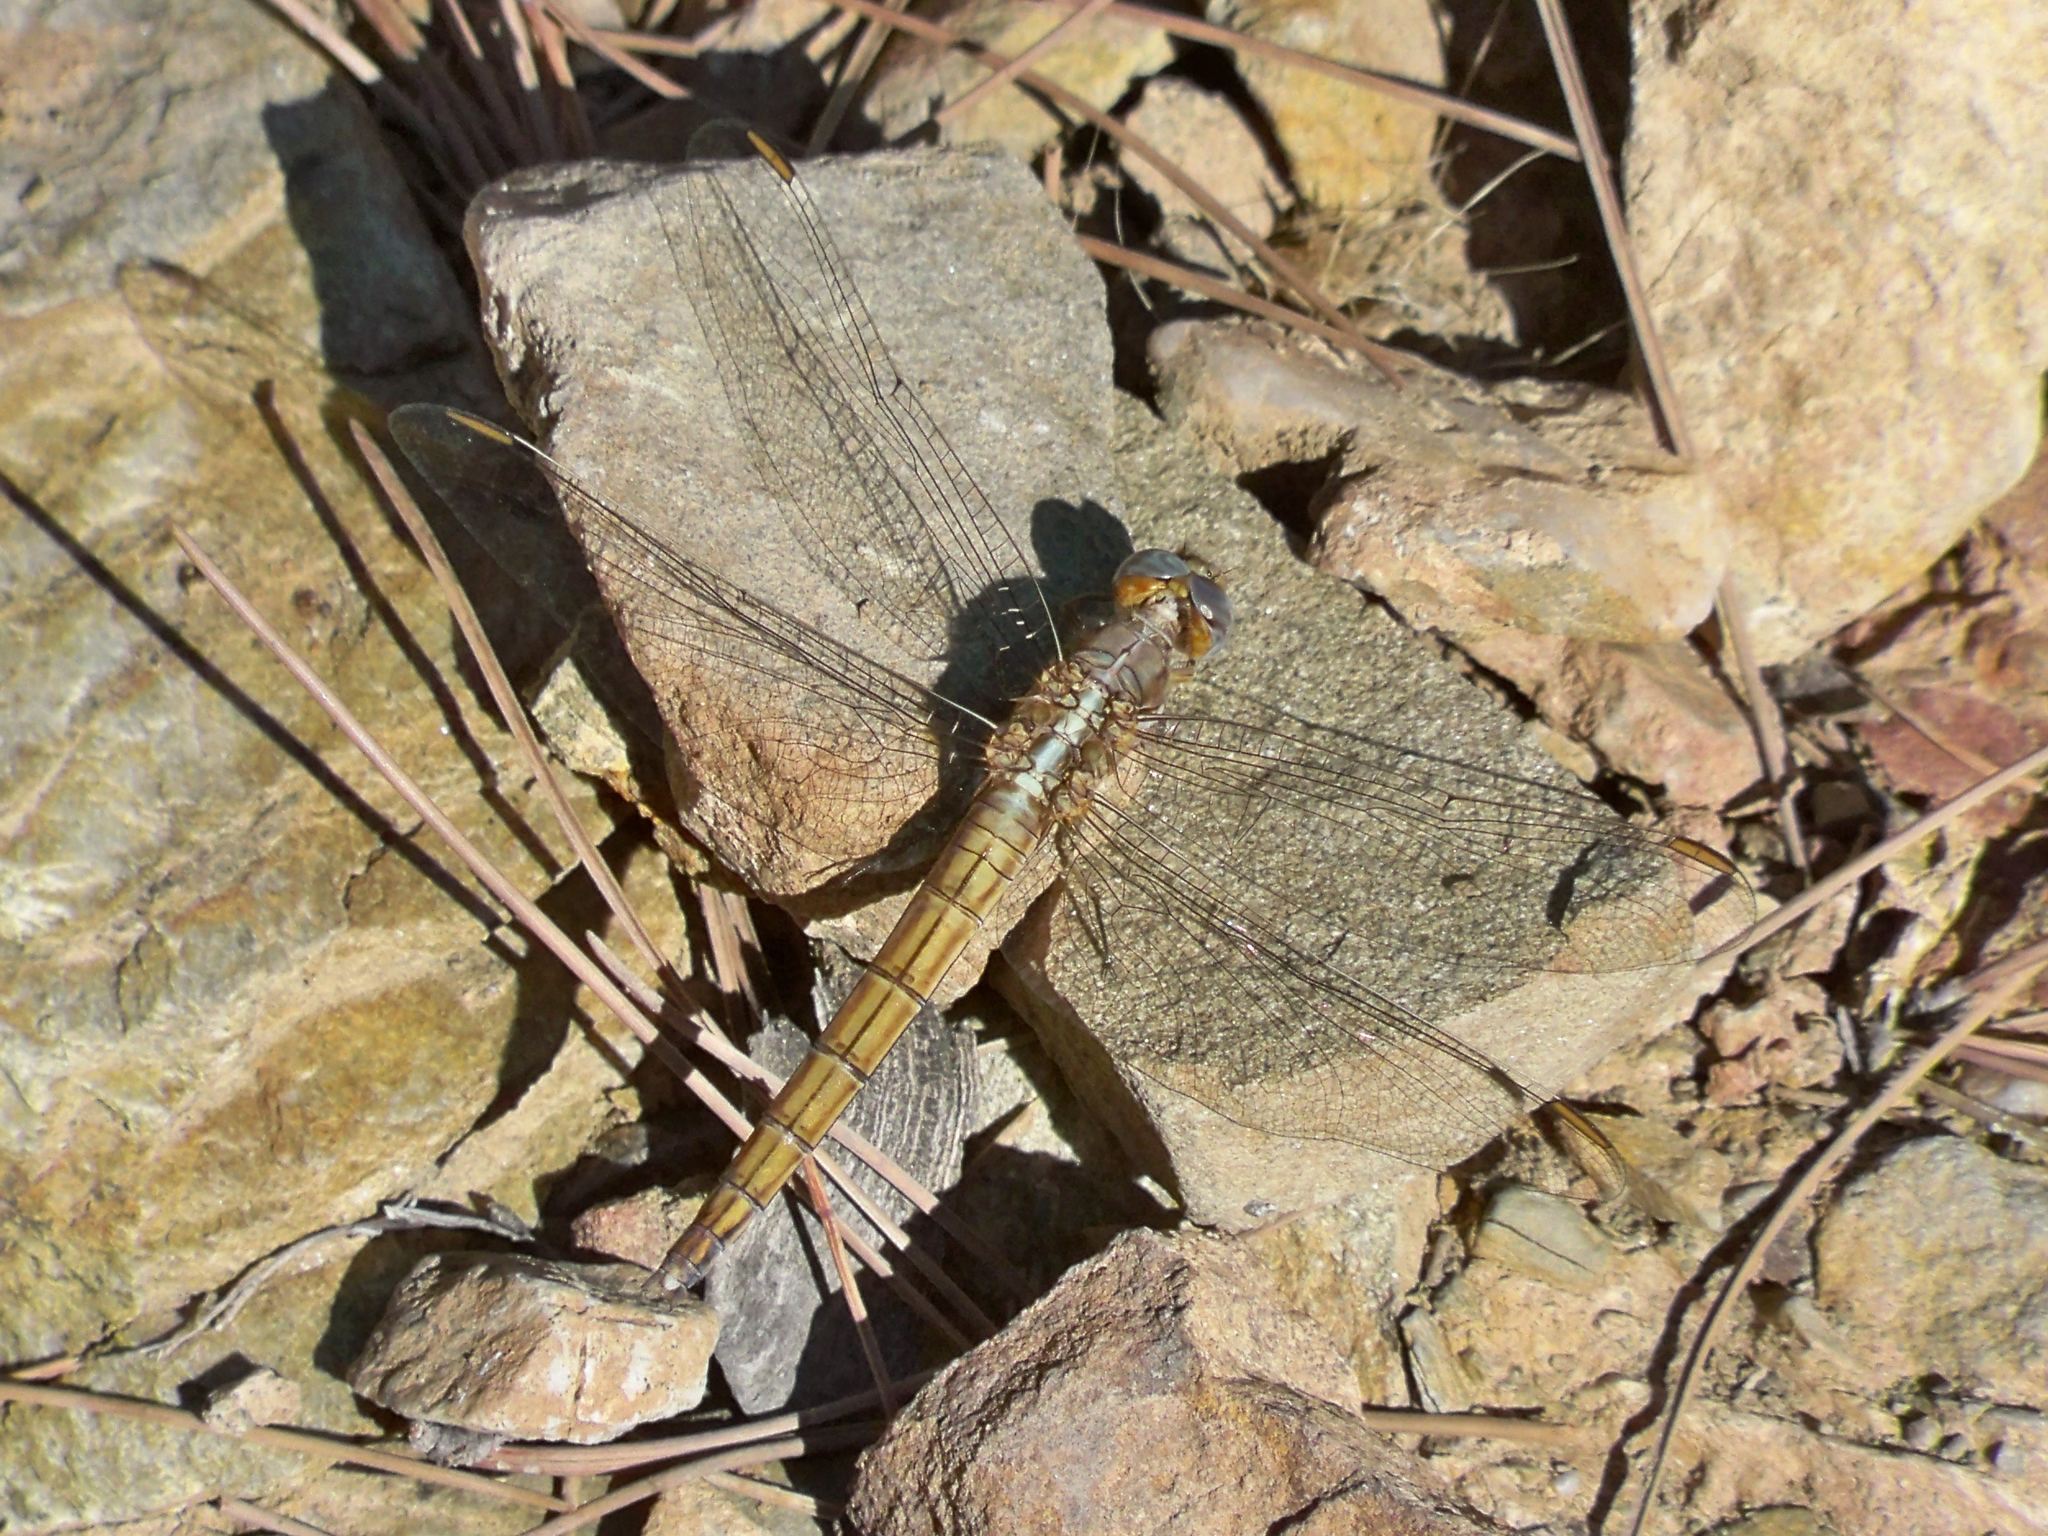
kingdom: Animalia
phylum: Arthropoda
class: Insecta
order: Odonata
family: Libellulidae
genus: Orthetrum
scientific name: Orthetrum chrysostigma
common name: Epaulet skimmer
